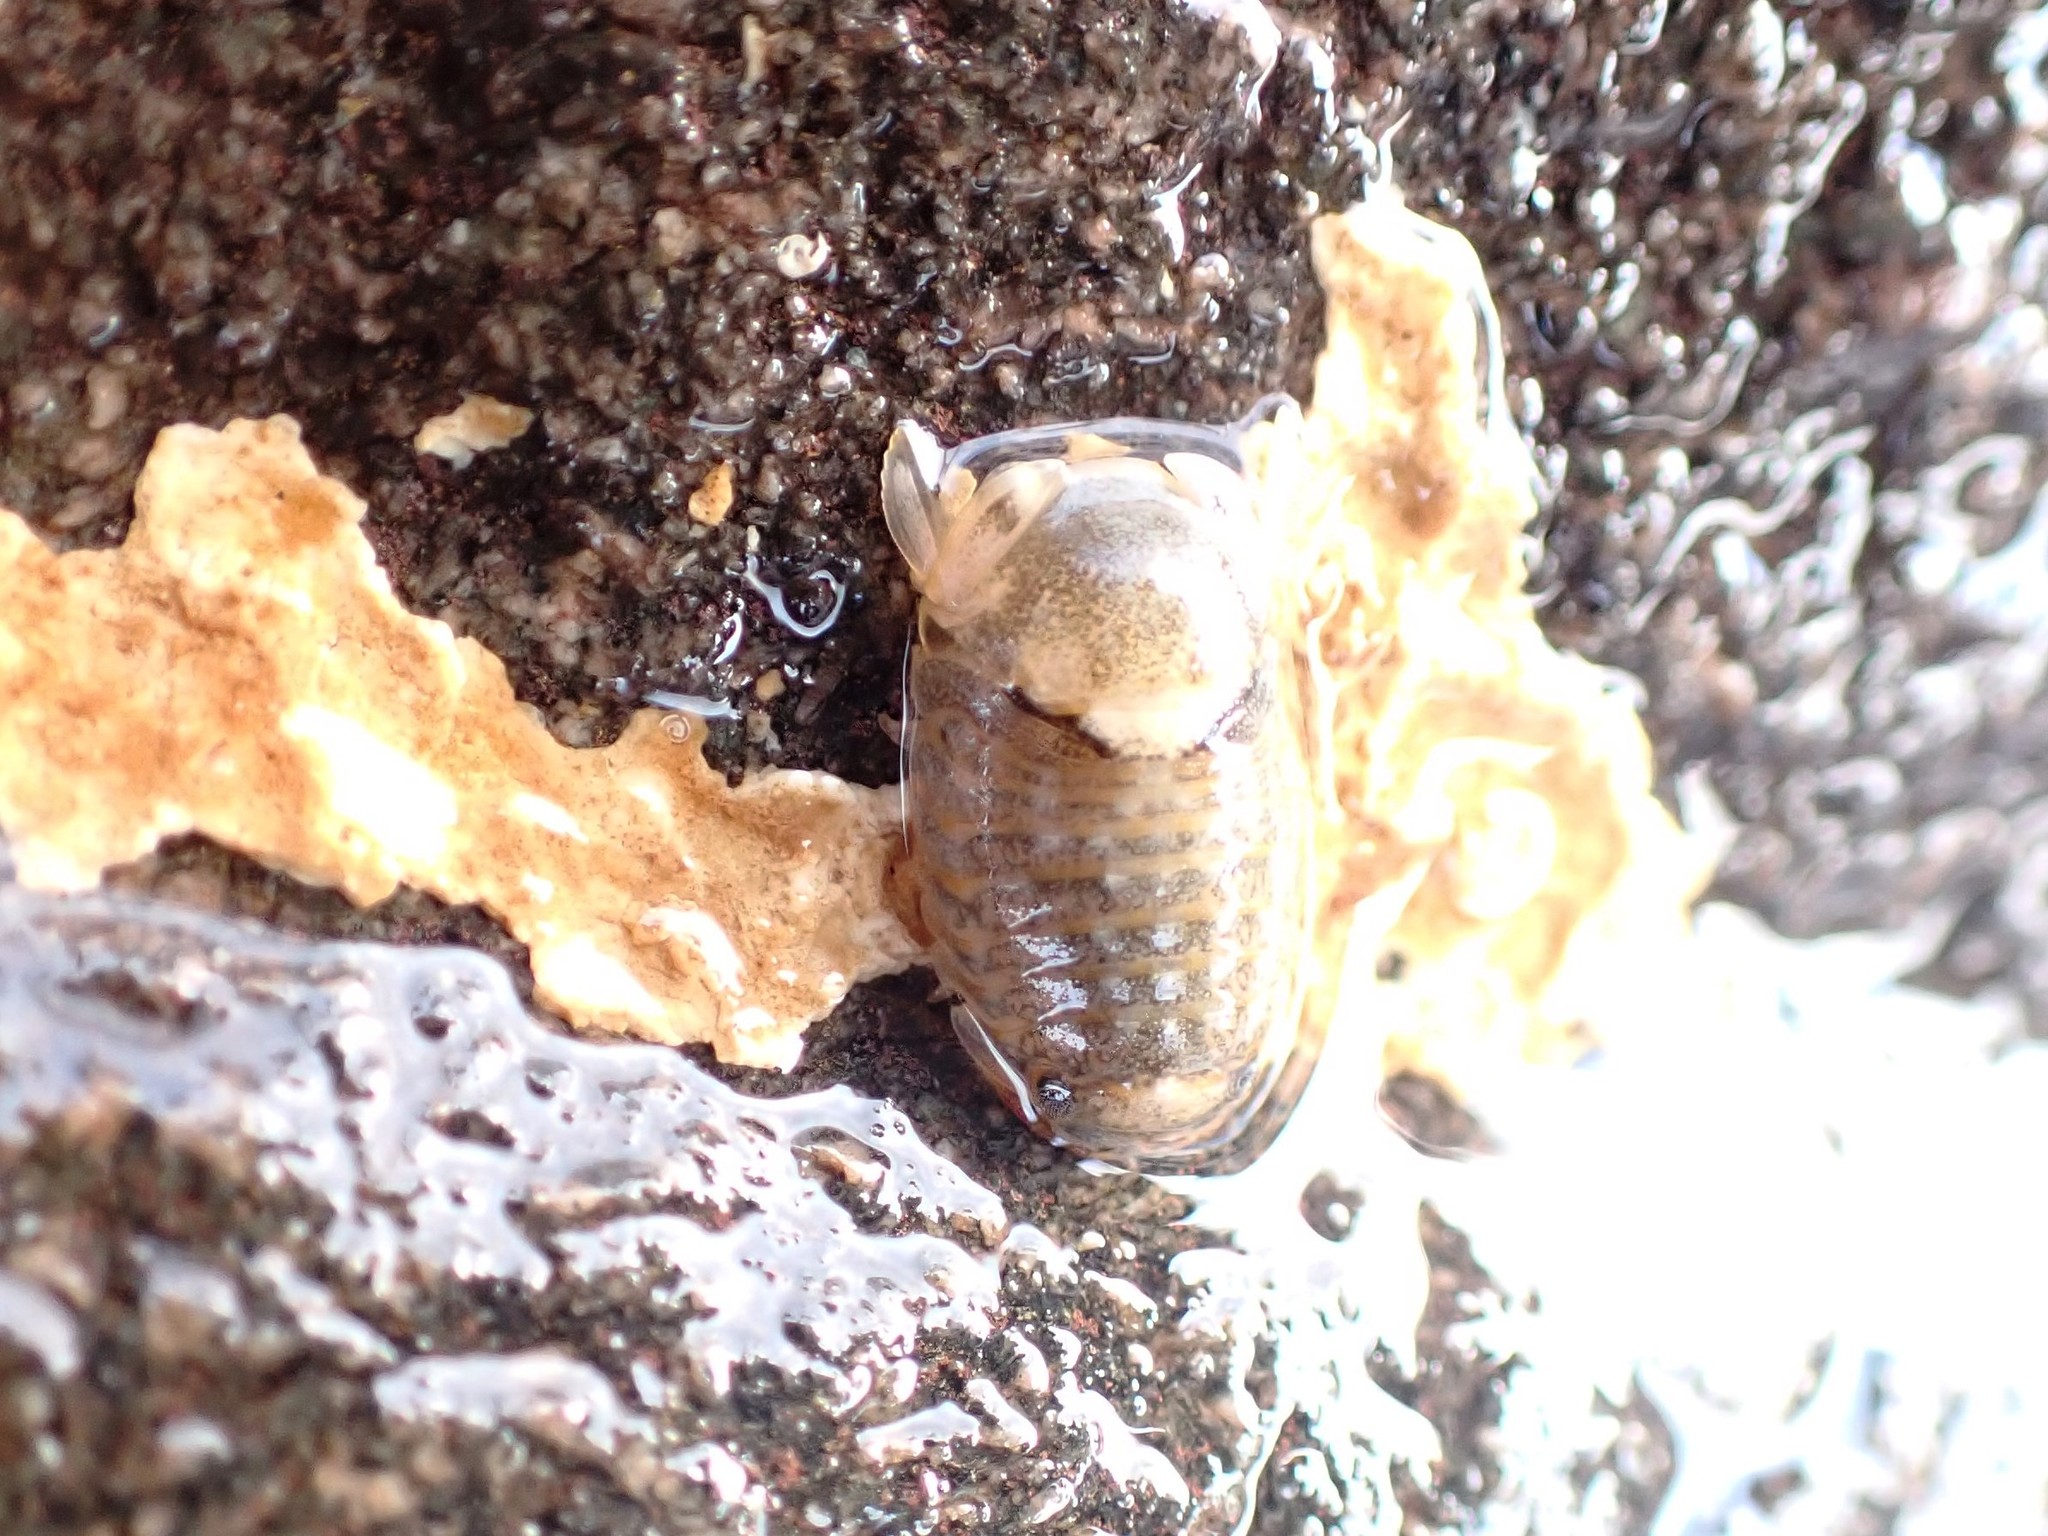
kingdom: Animalia
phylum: Arthropoda
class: Malacostraca
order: Isopoda
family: Sphaeromatidae
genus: Sphaeroma
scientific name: Sphaeroma serratum
